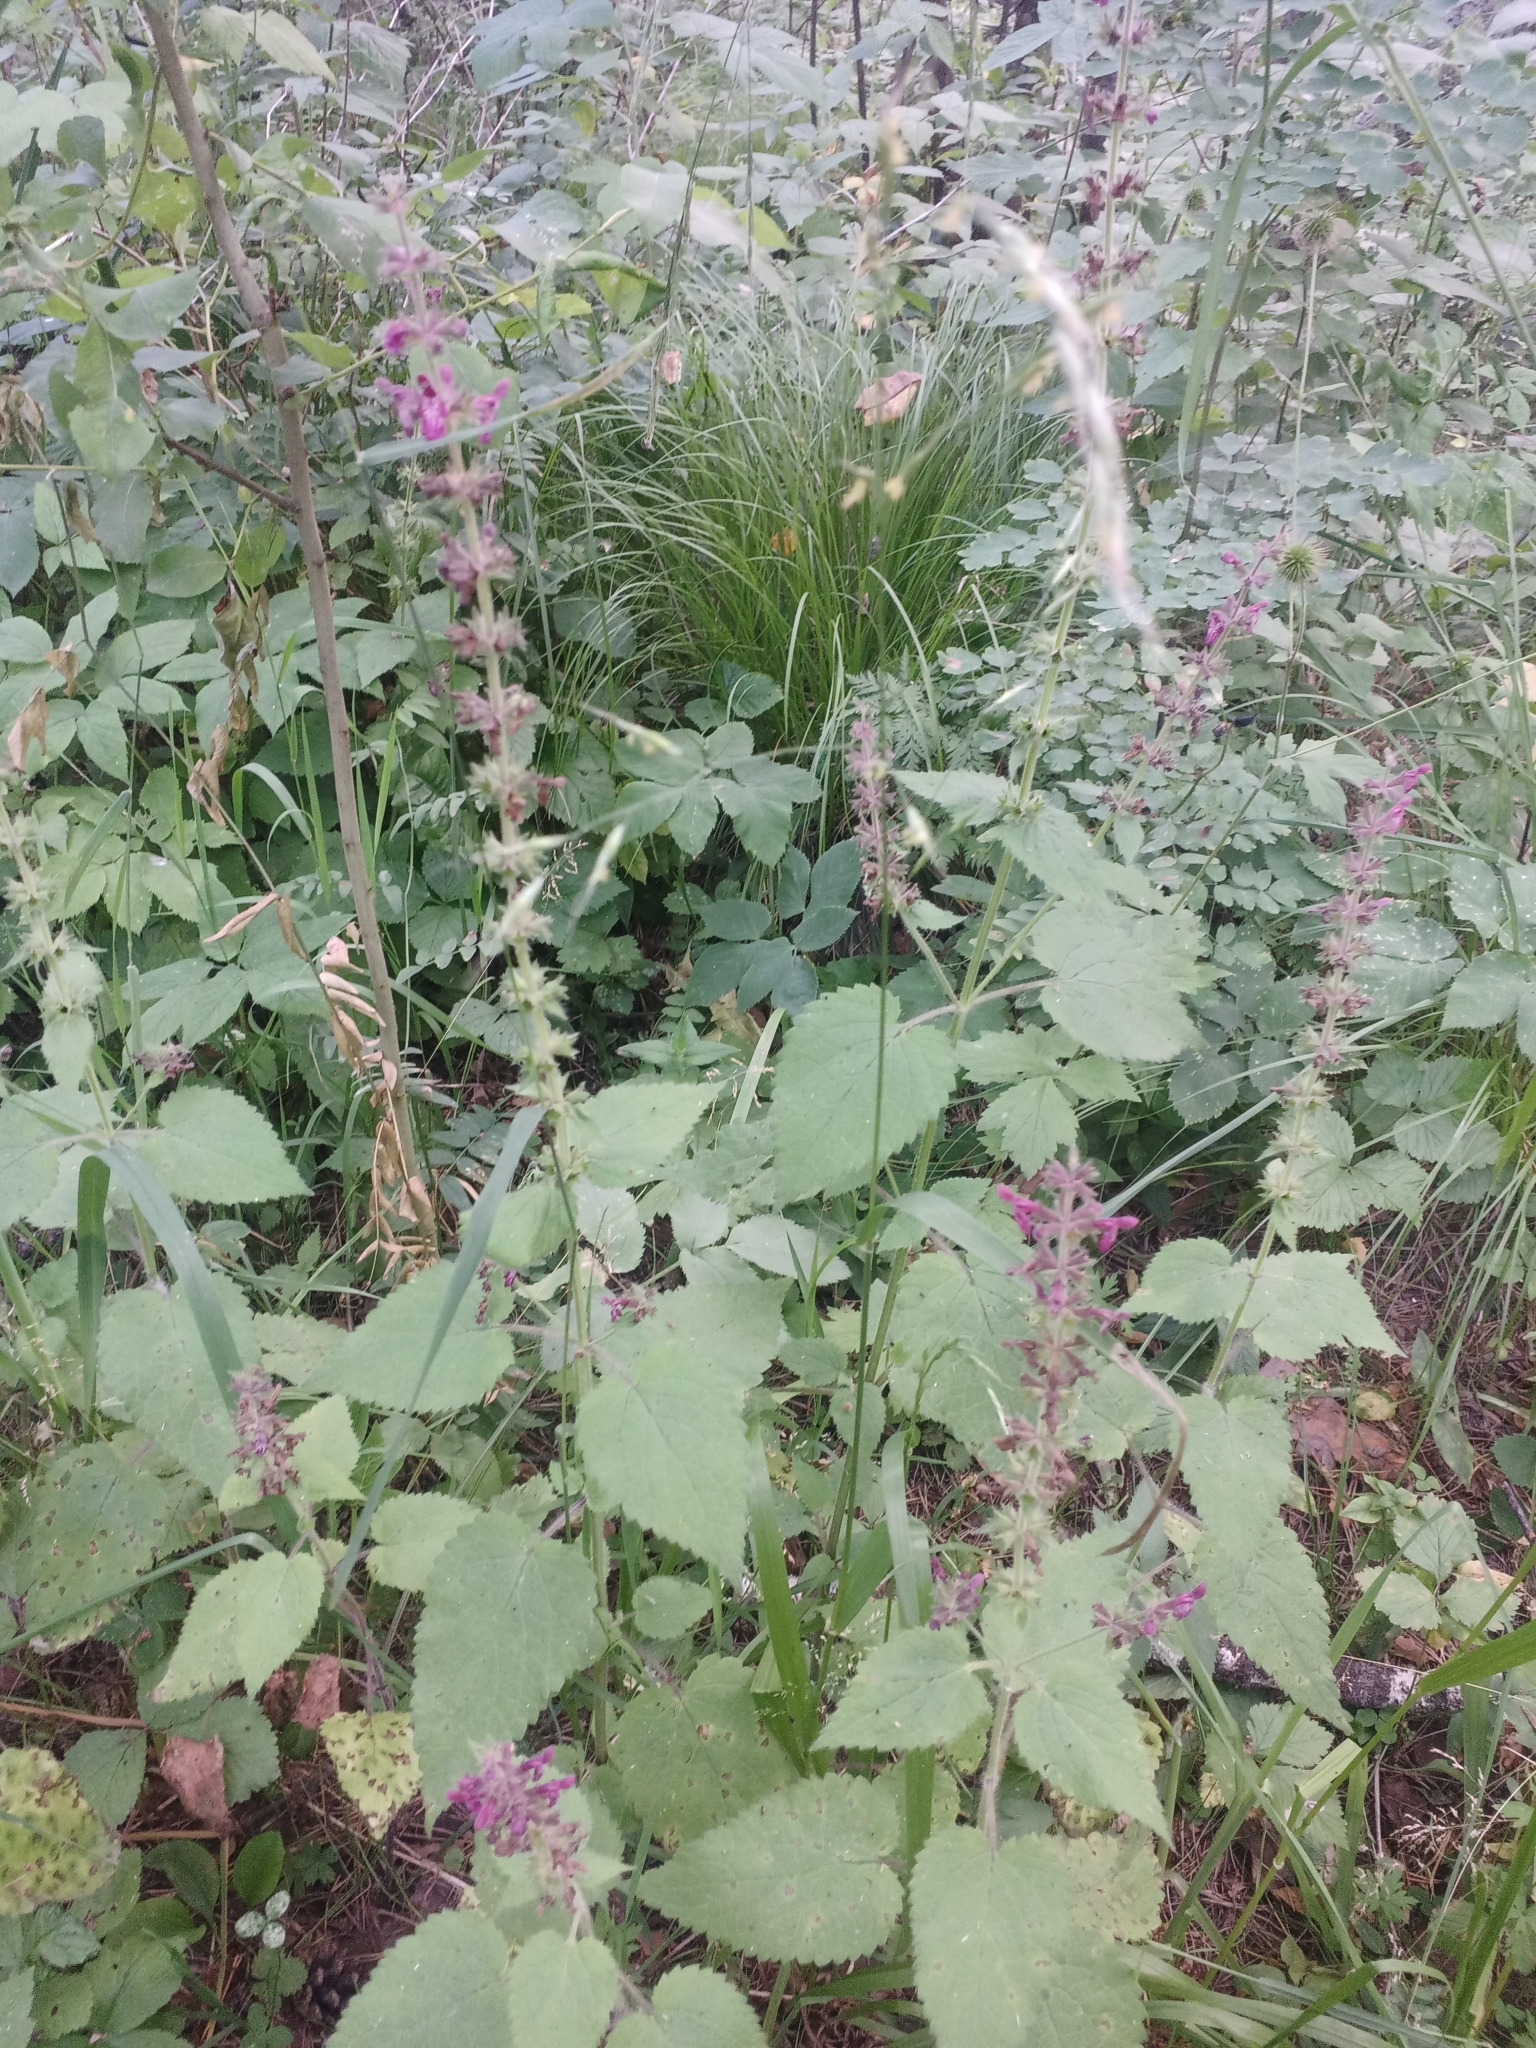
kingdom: Plantae
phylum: Tracheophyta
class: Magnoliopsida
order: Lamiales
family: Lamiaceae
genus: Stachys
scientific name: Stachys sylvatica
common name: Hedge woundwort
